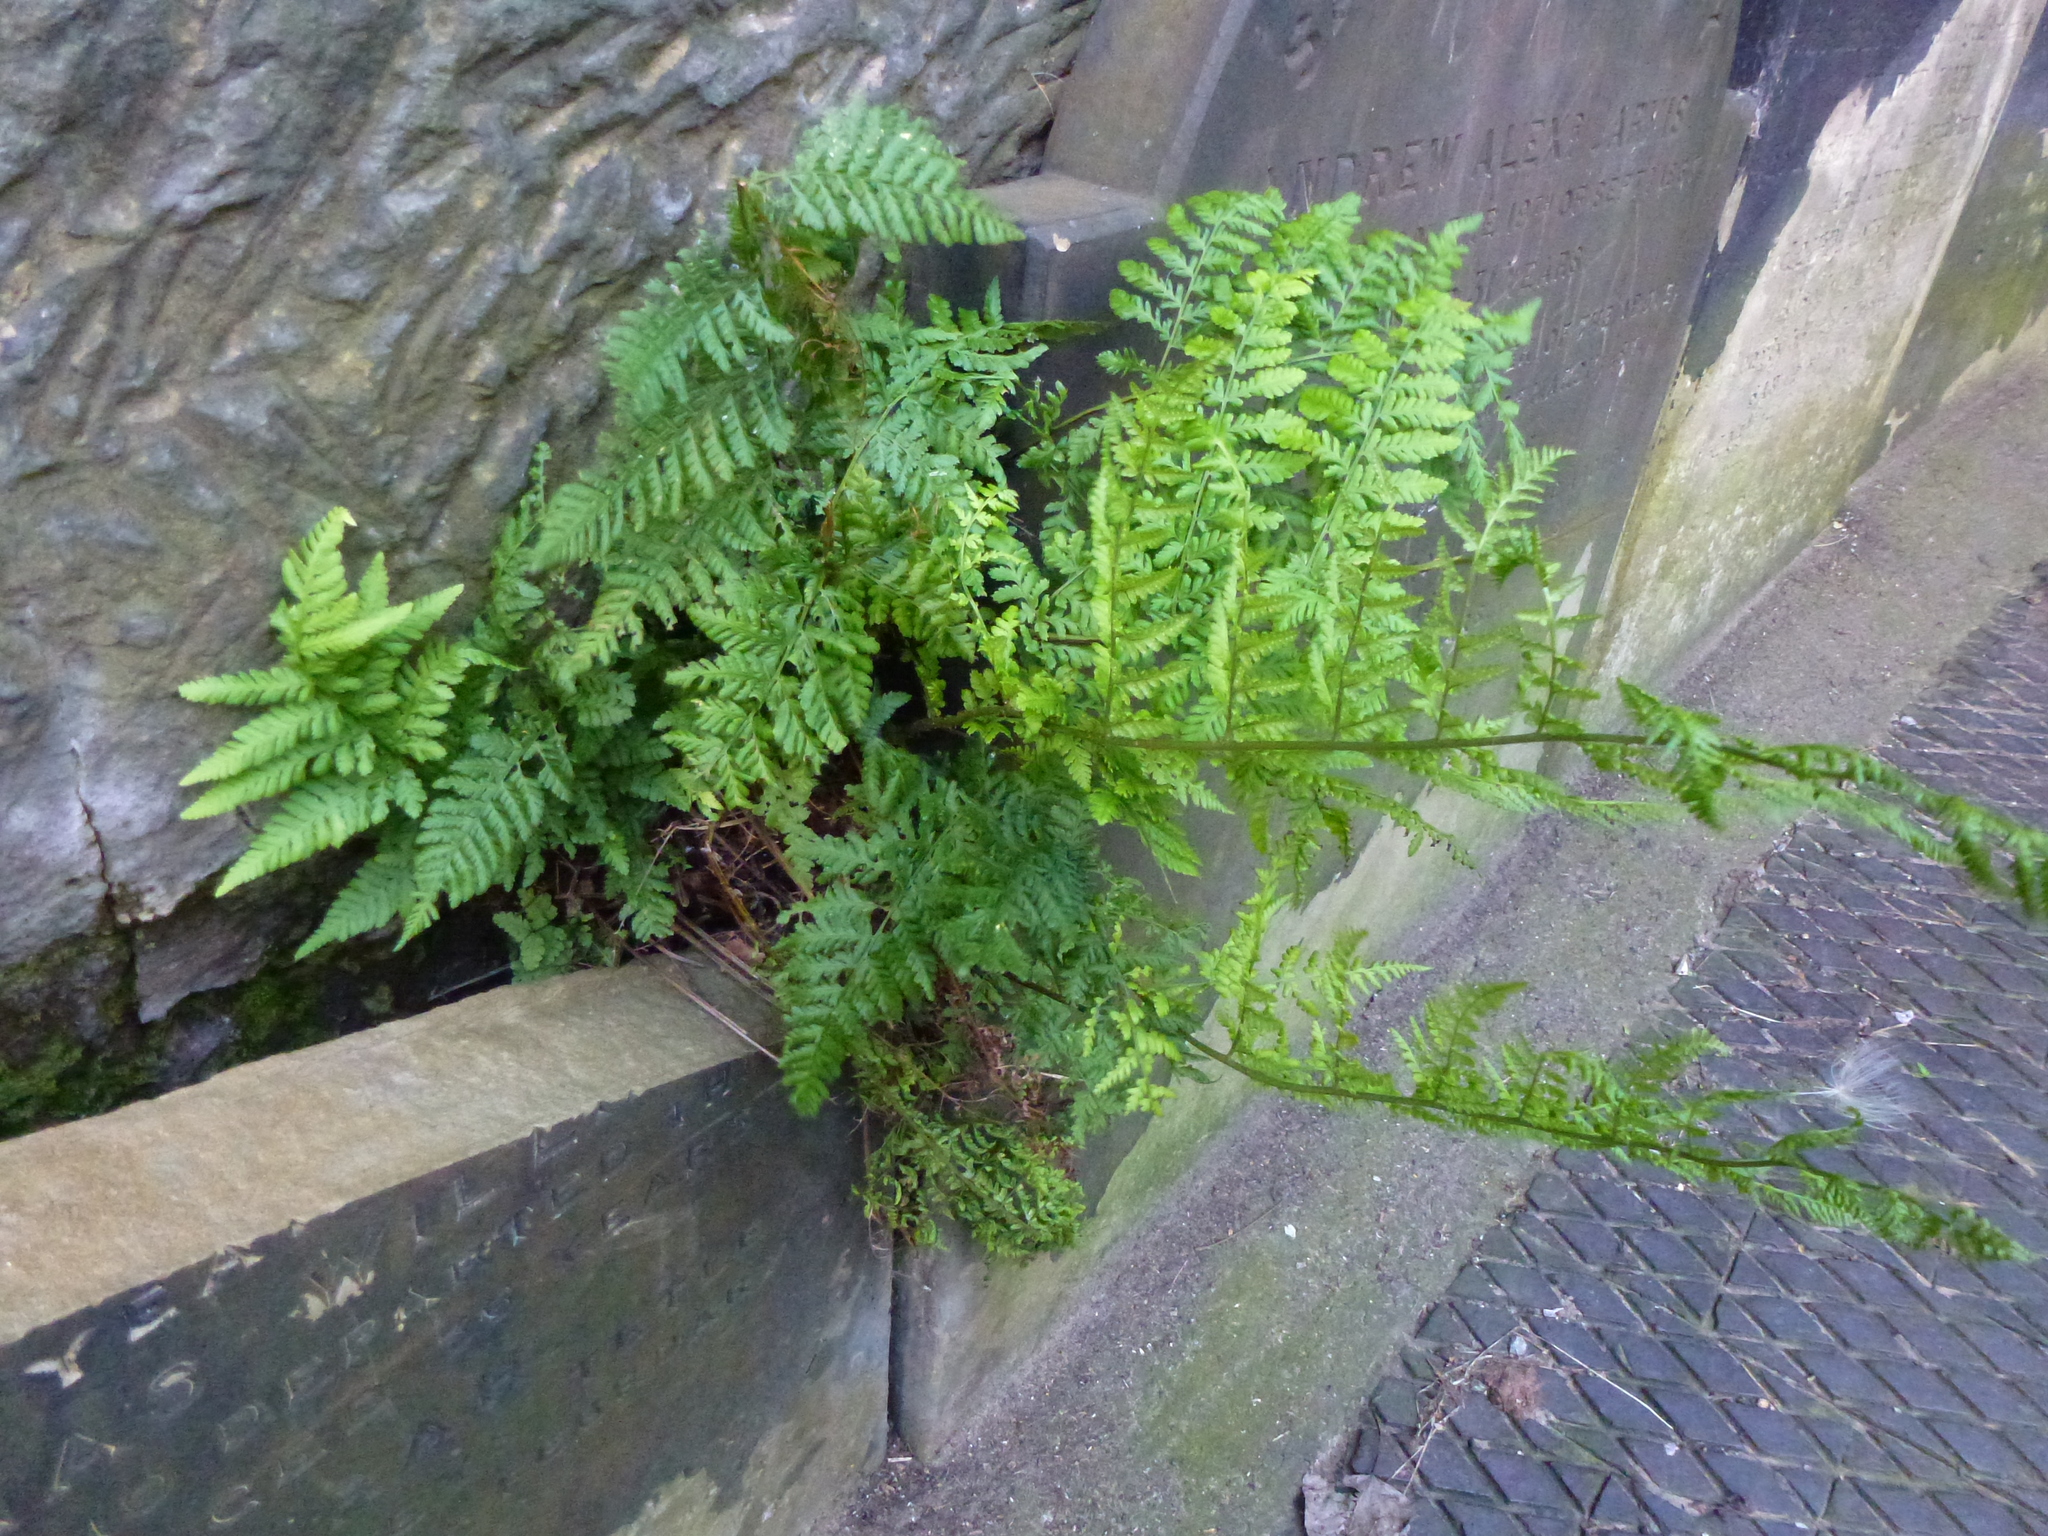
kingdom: Plantae
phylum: Tracheophyta
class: Polypodiopsida
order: Polypodiales
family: Dryopteridaceae
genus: Dryopteris
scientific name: Dryopteris filix-mas
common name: Male fern
